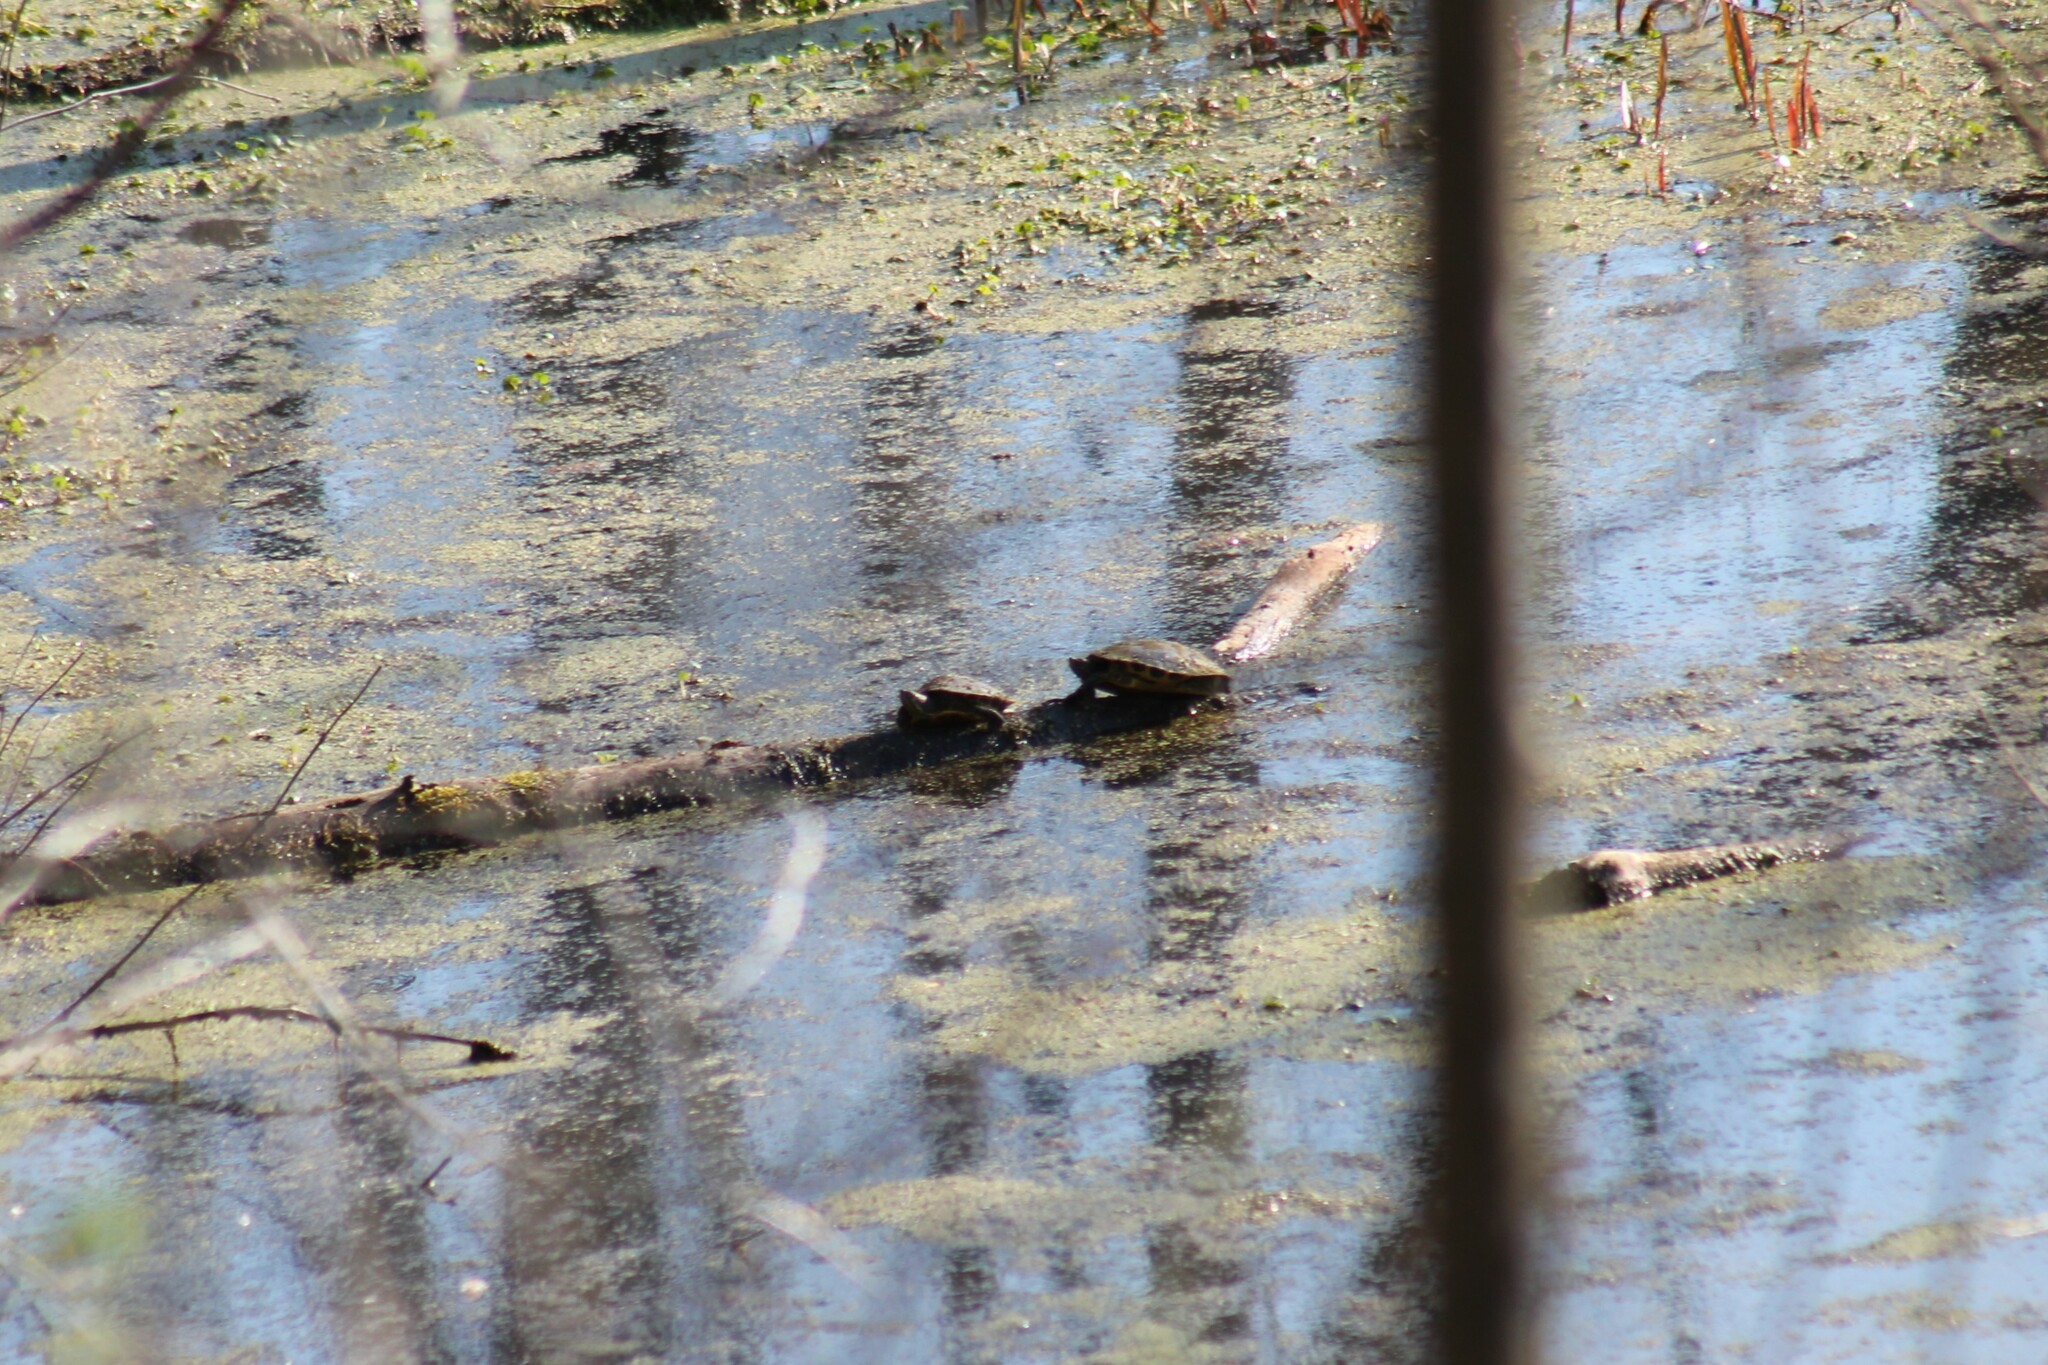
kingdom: Animalia
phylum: Chordata
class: Testudines
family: Emydidae
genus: Trachemys
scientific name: Trachemys scripta
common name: Slider
